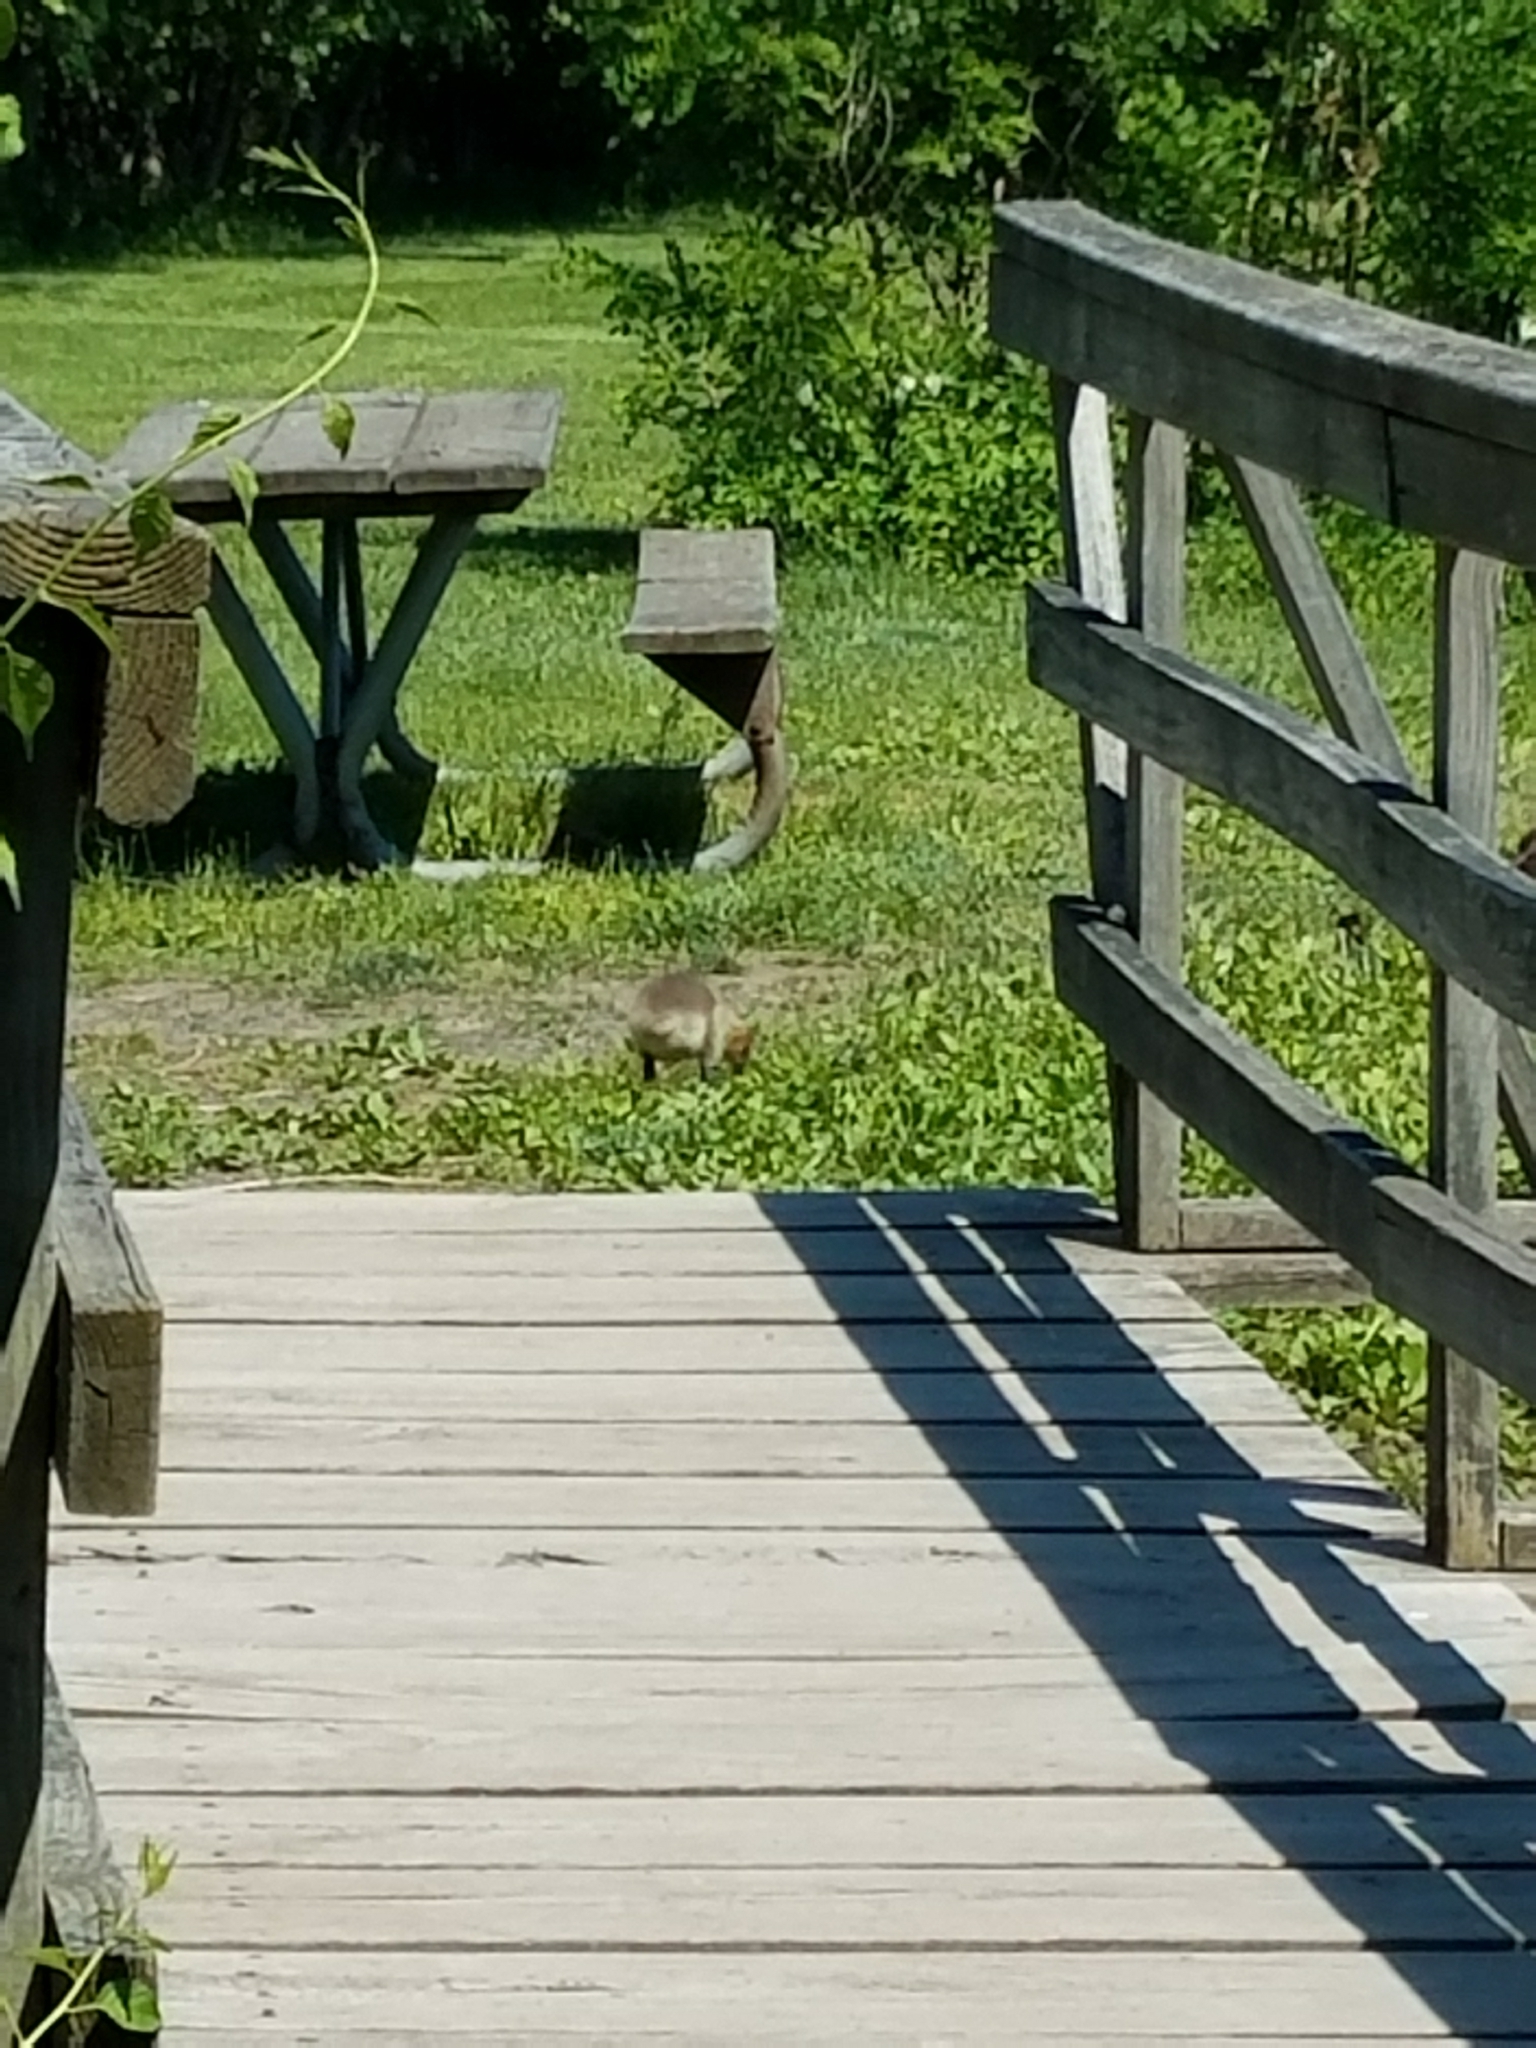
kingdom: Animalia
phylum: Chordata
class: Aves
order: Anseriformes
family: Anatidae
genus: Branta
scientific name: Branta canadensis
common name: Canada goose
